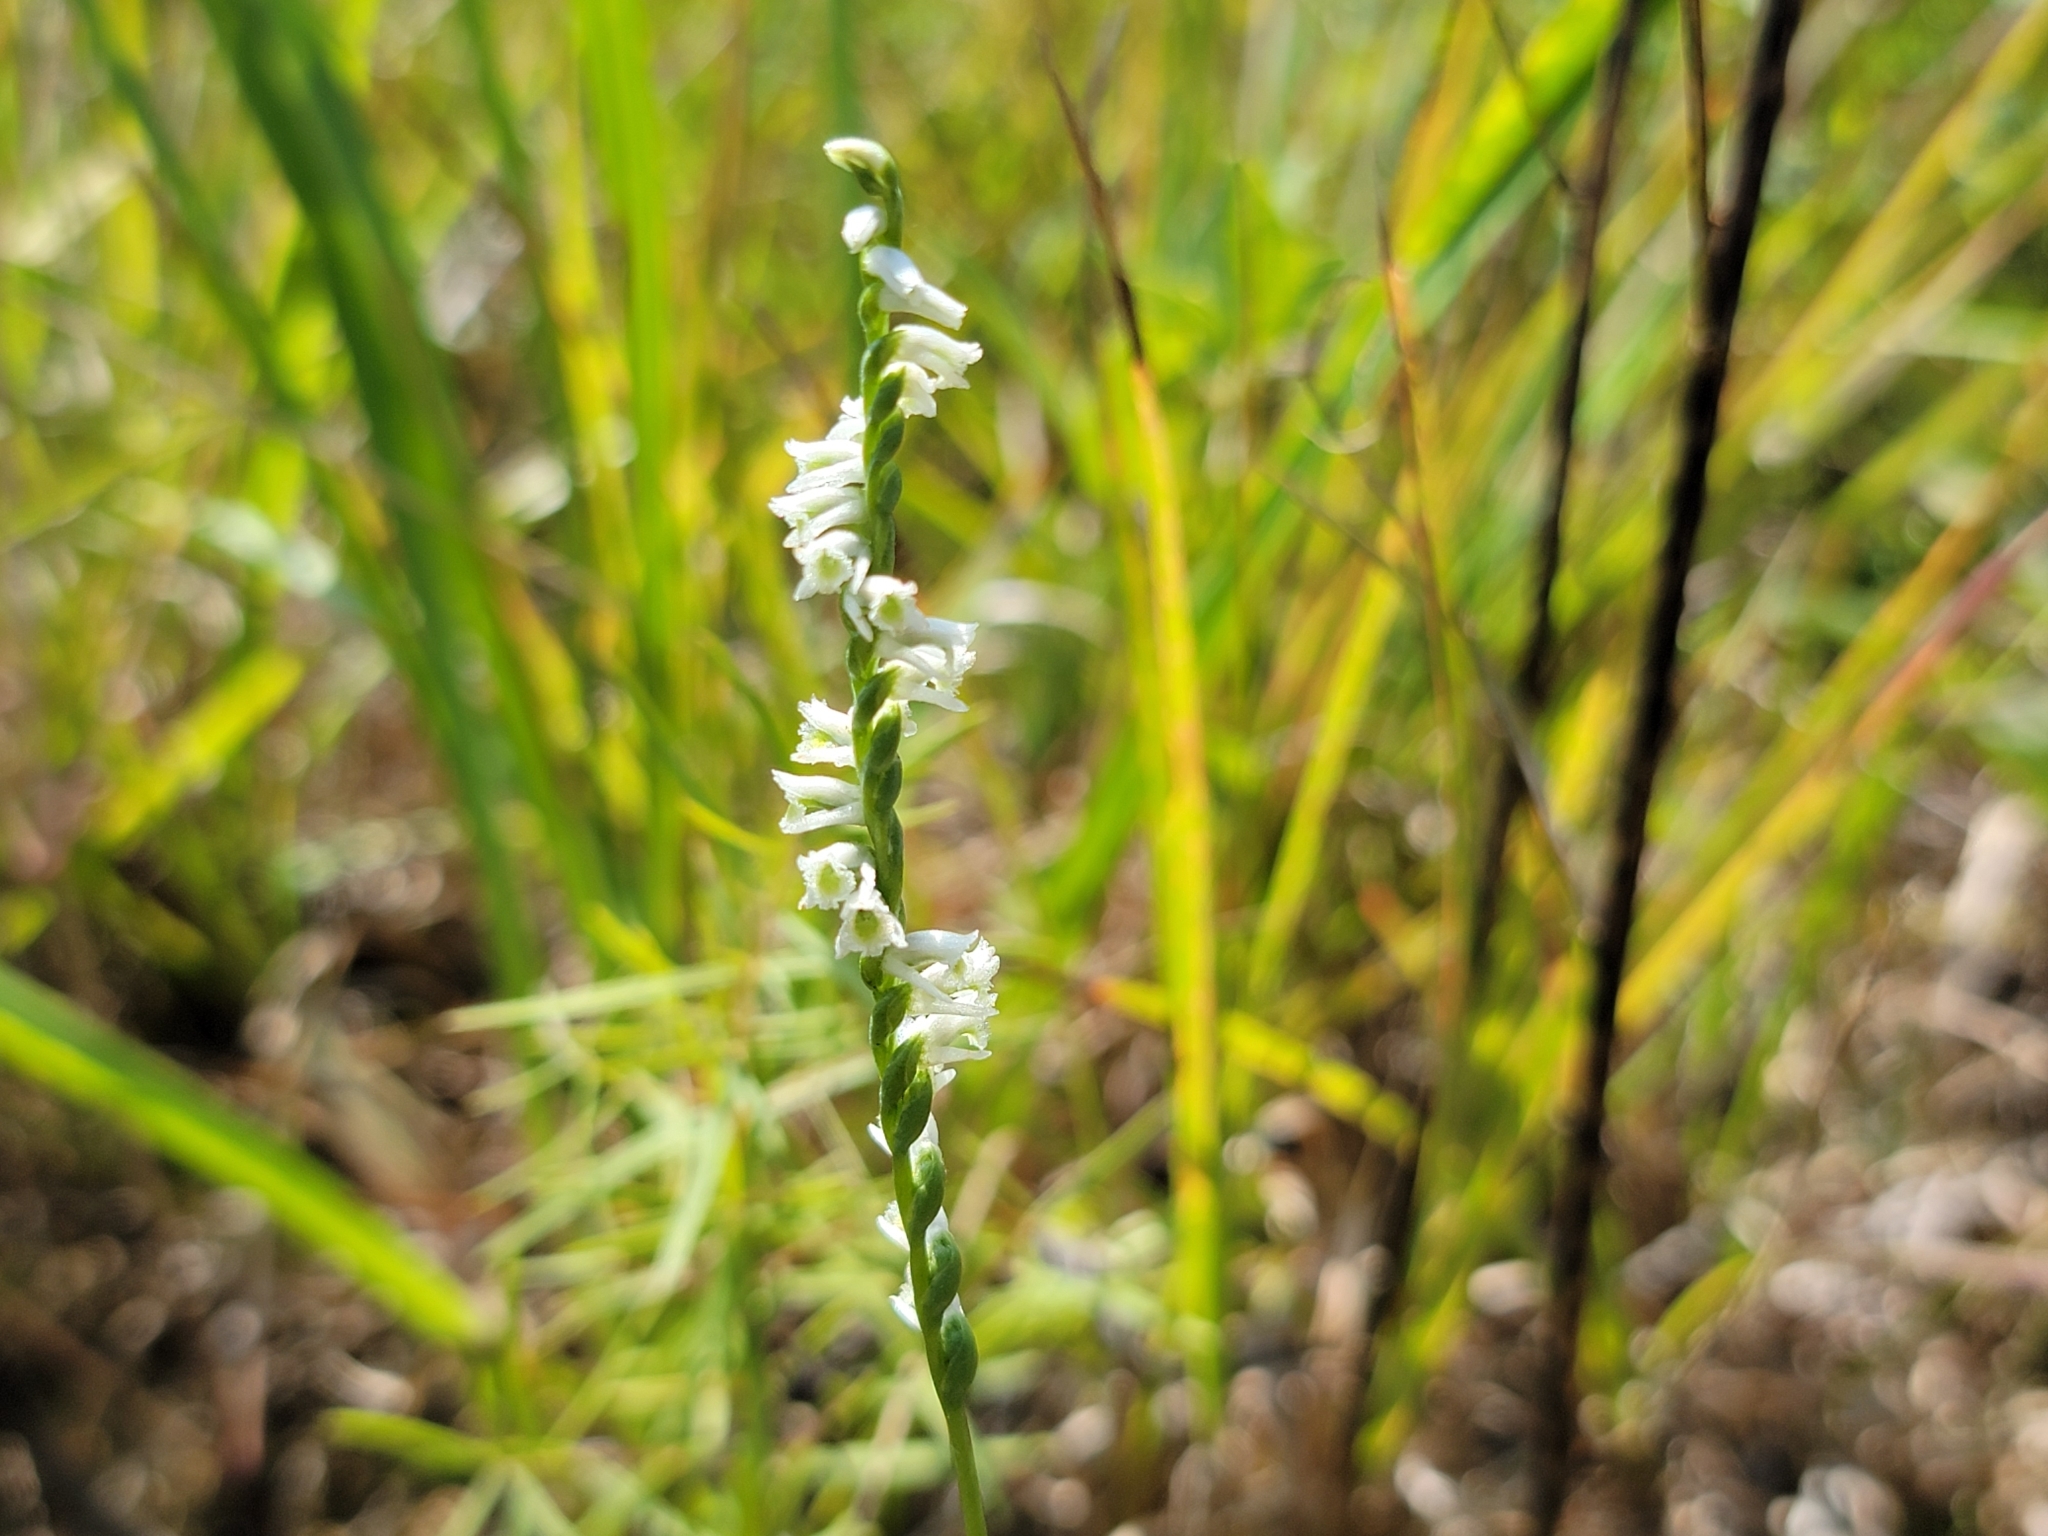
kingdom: Plantae
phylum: Tracheophyta
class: Liliopsida
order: Asparagales
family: Orchidaceae
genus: Spiranthes
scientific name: Spiranthes lacera
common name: Northern slender ladies'-tresses
